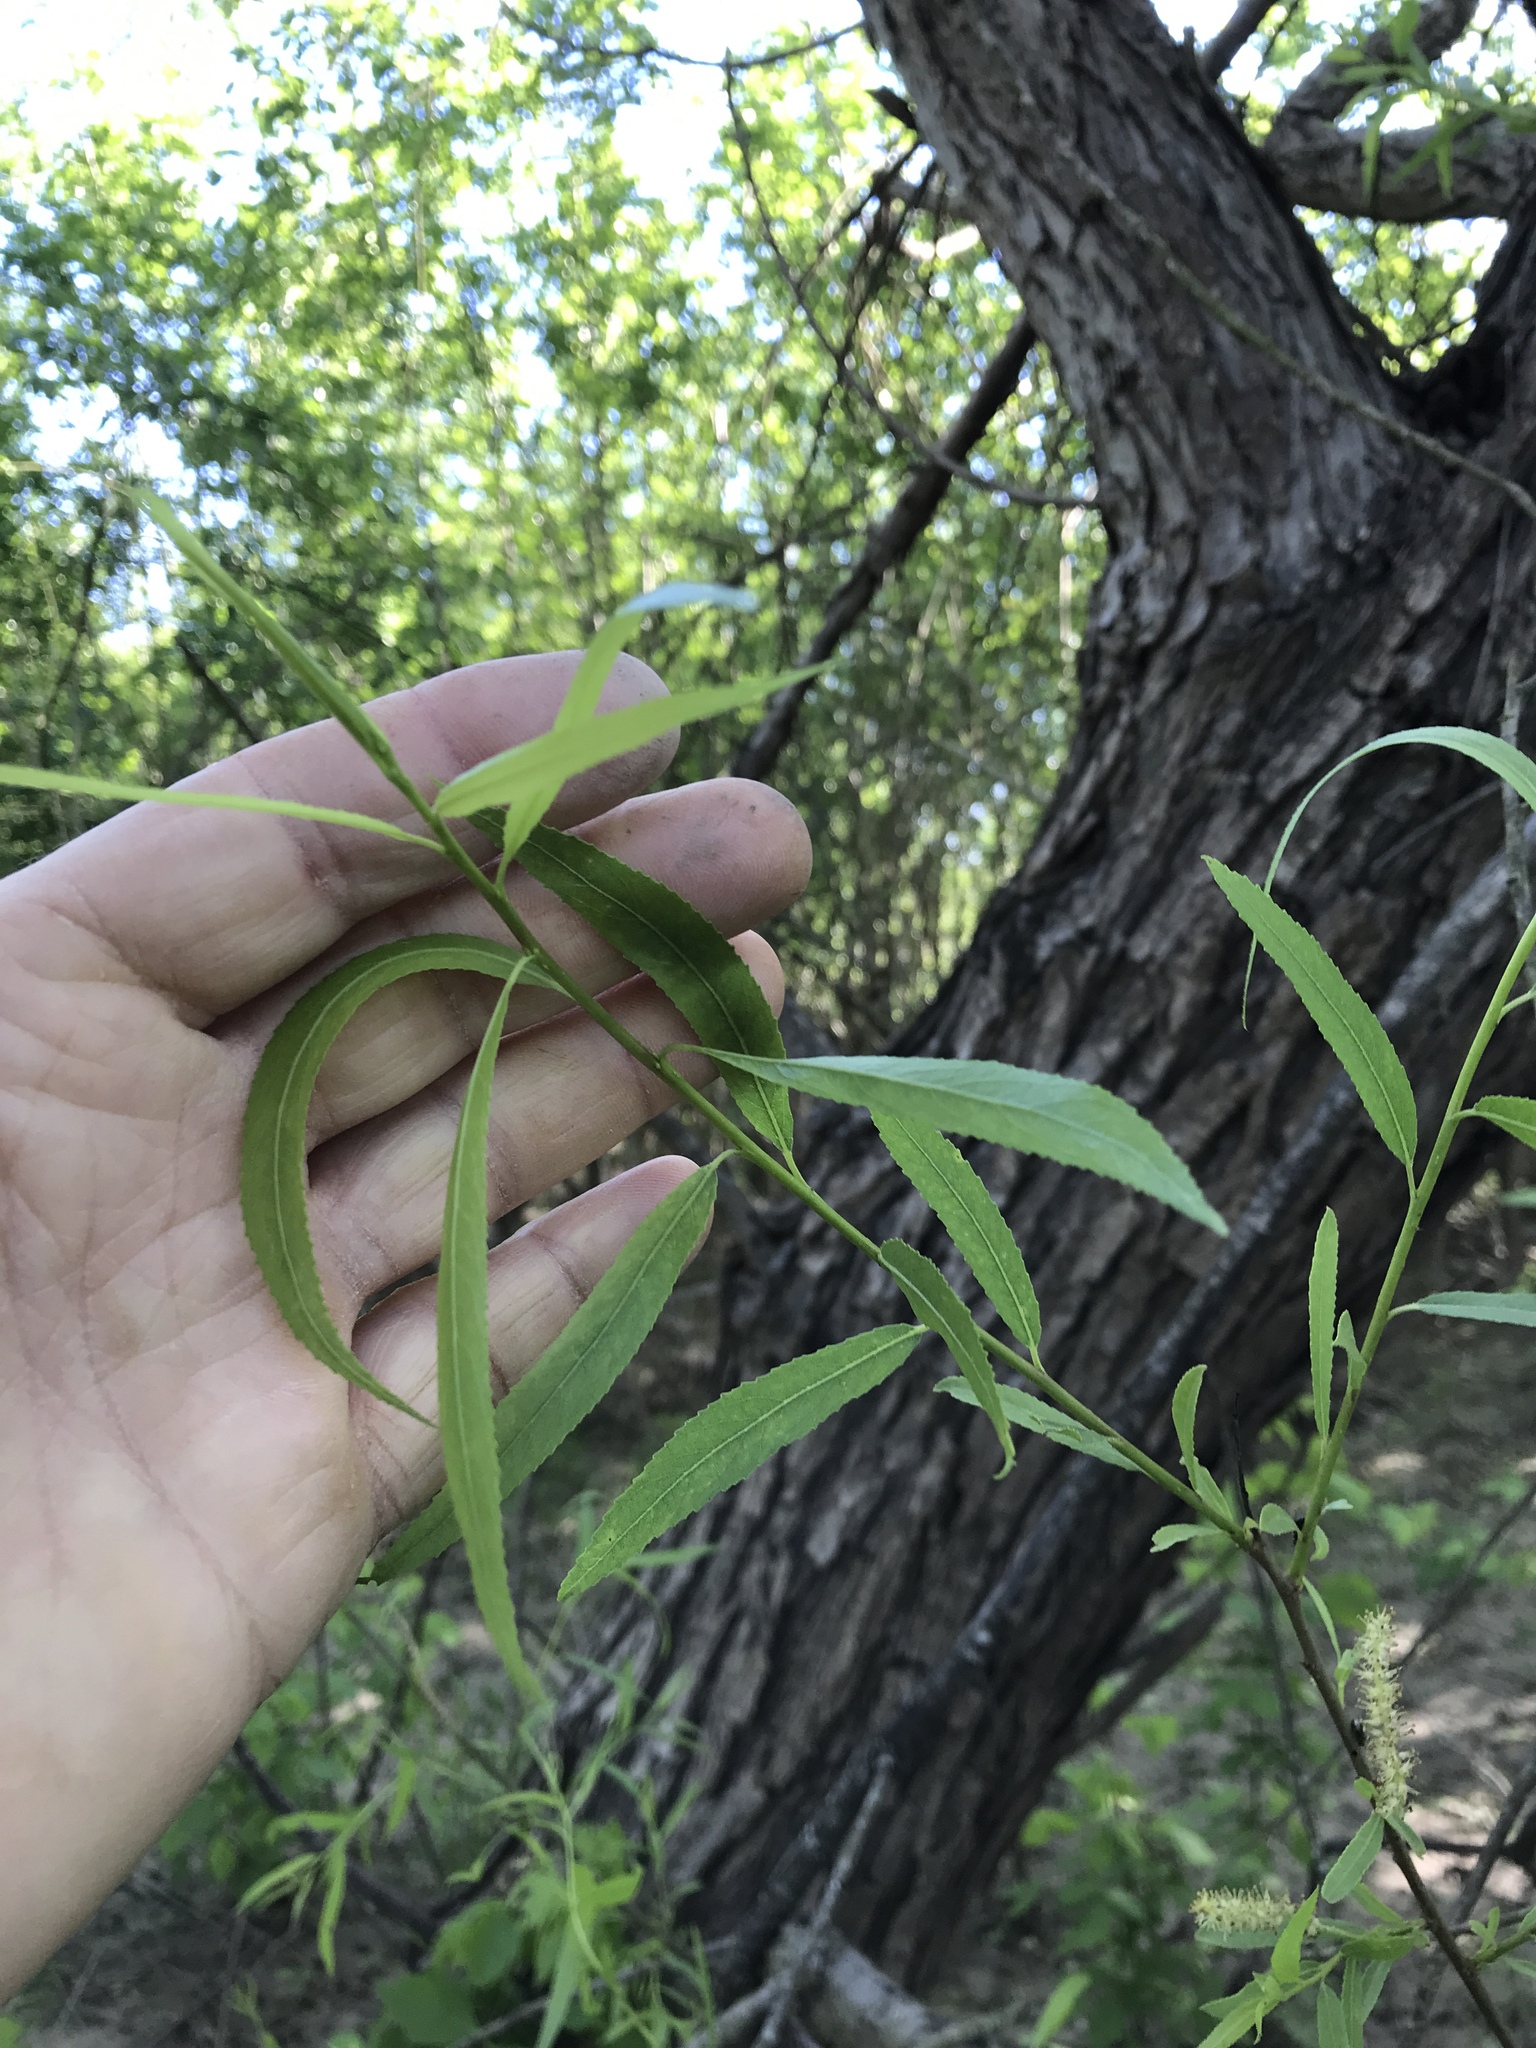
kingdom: Plantae
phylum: Tracheophyta
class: Magnoliopsida
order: Malpighiales
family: Salicaceae
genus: Salix
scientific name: Salix nigra
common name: Black willow
